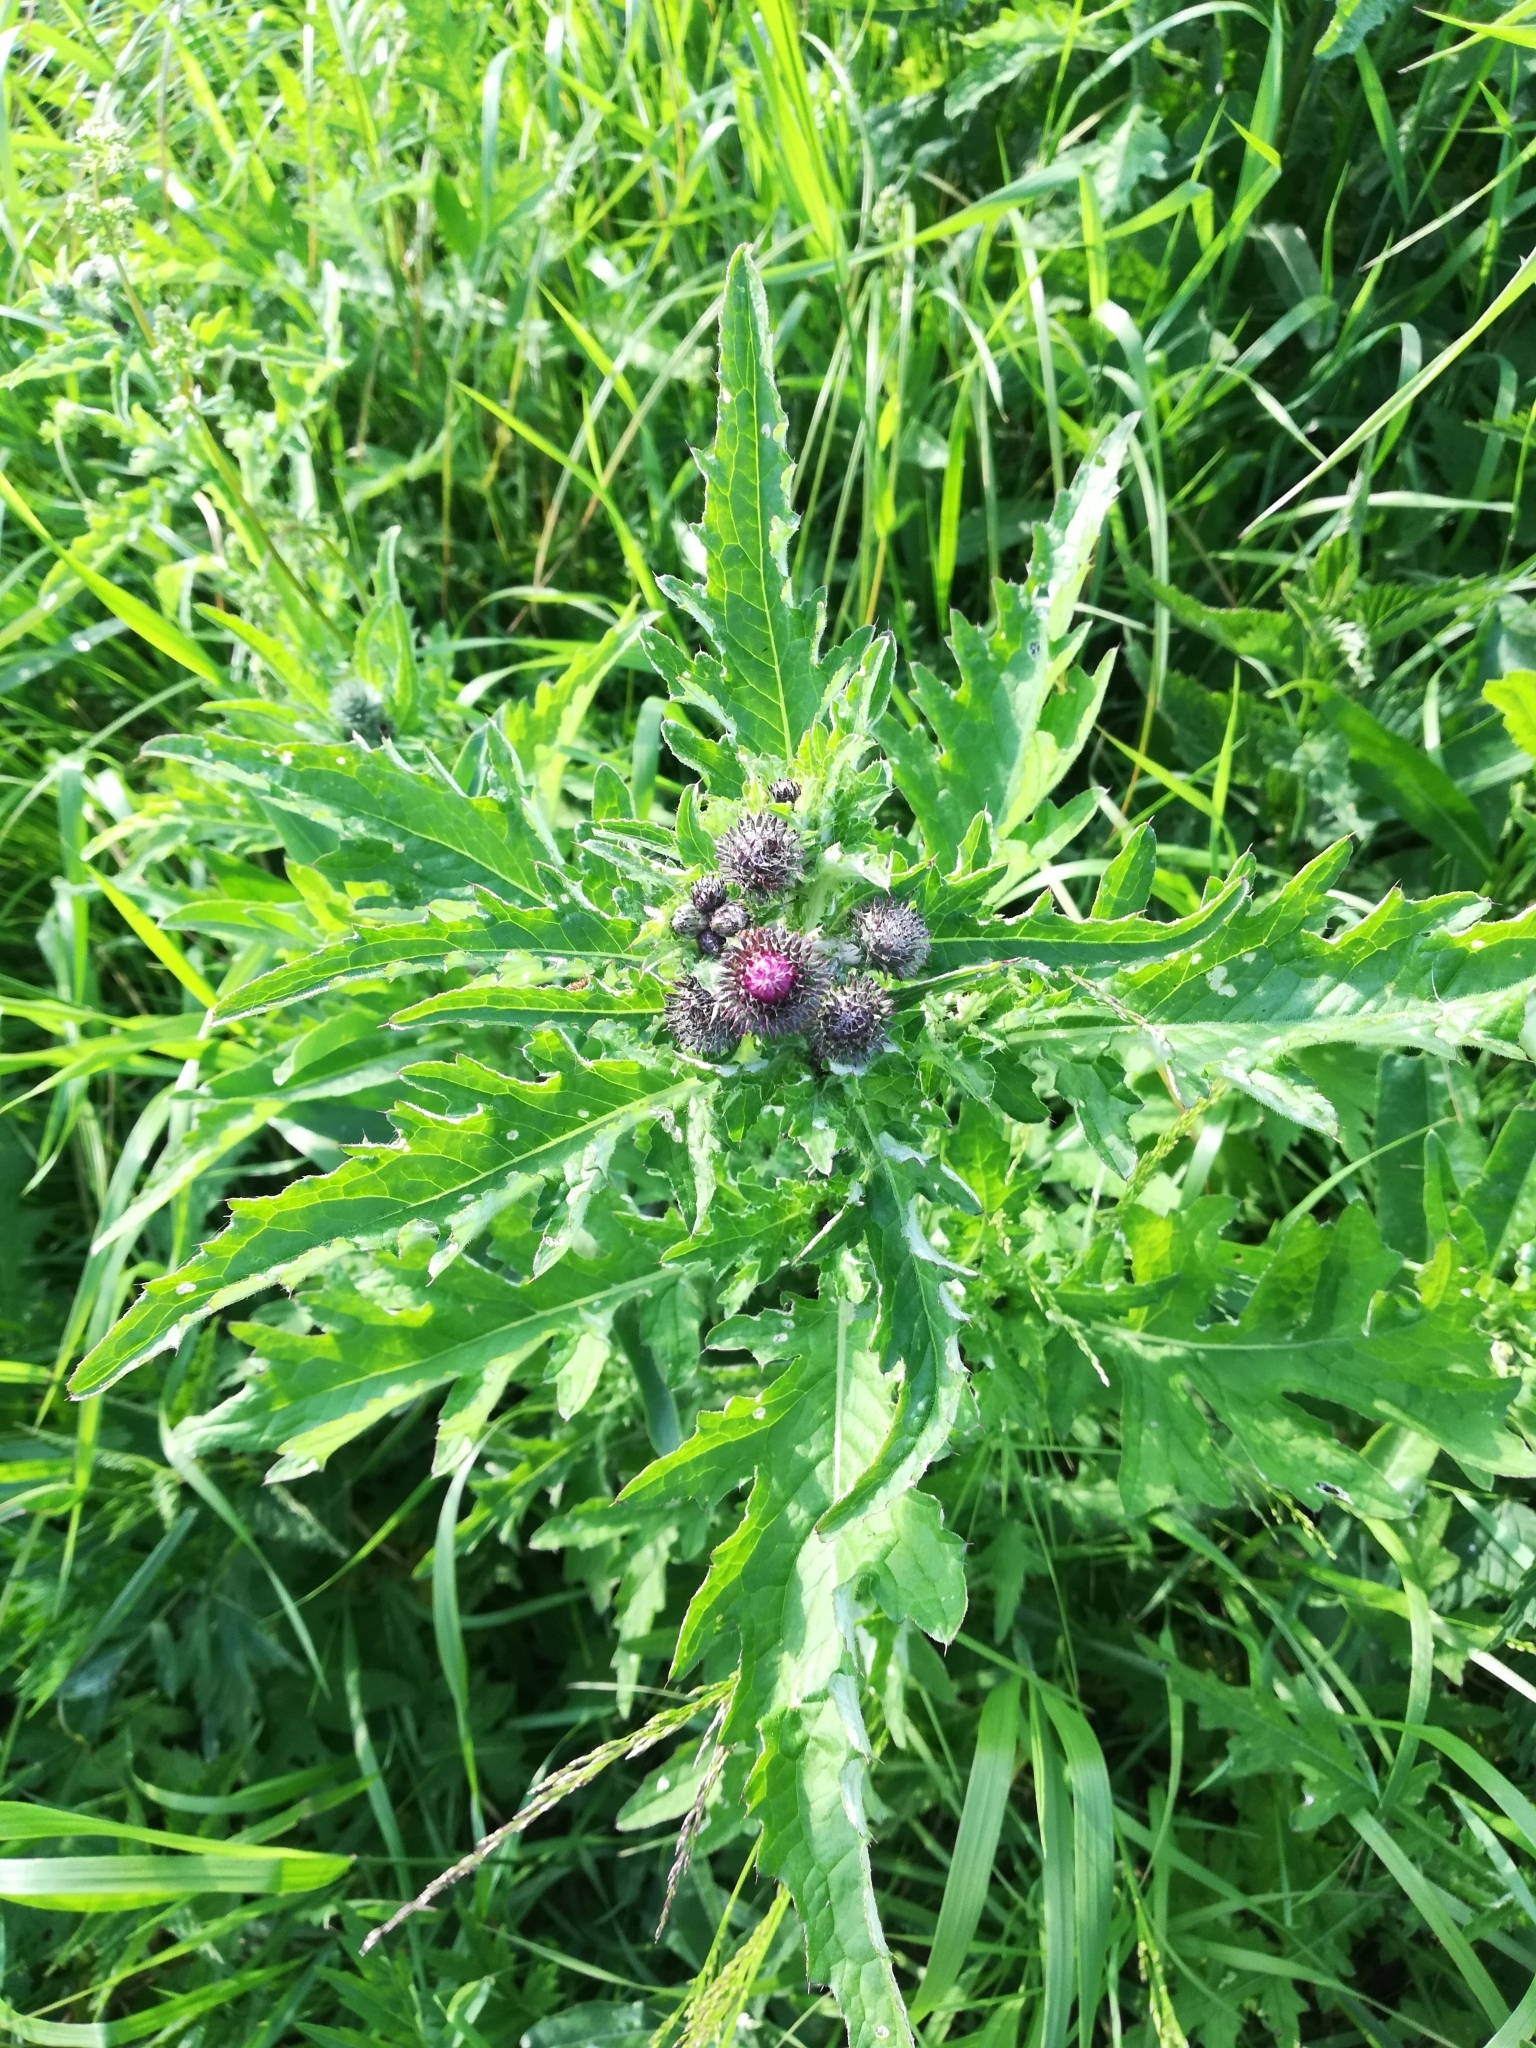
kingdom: Plantae
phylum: Tracheophyta
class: Magnoliopsida
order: Asterales
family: Asteraceae
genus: Carduus
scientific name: Carduus crispus
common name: Welted thistle
